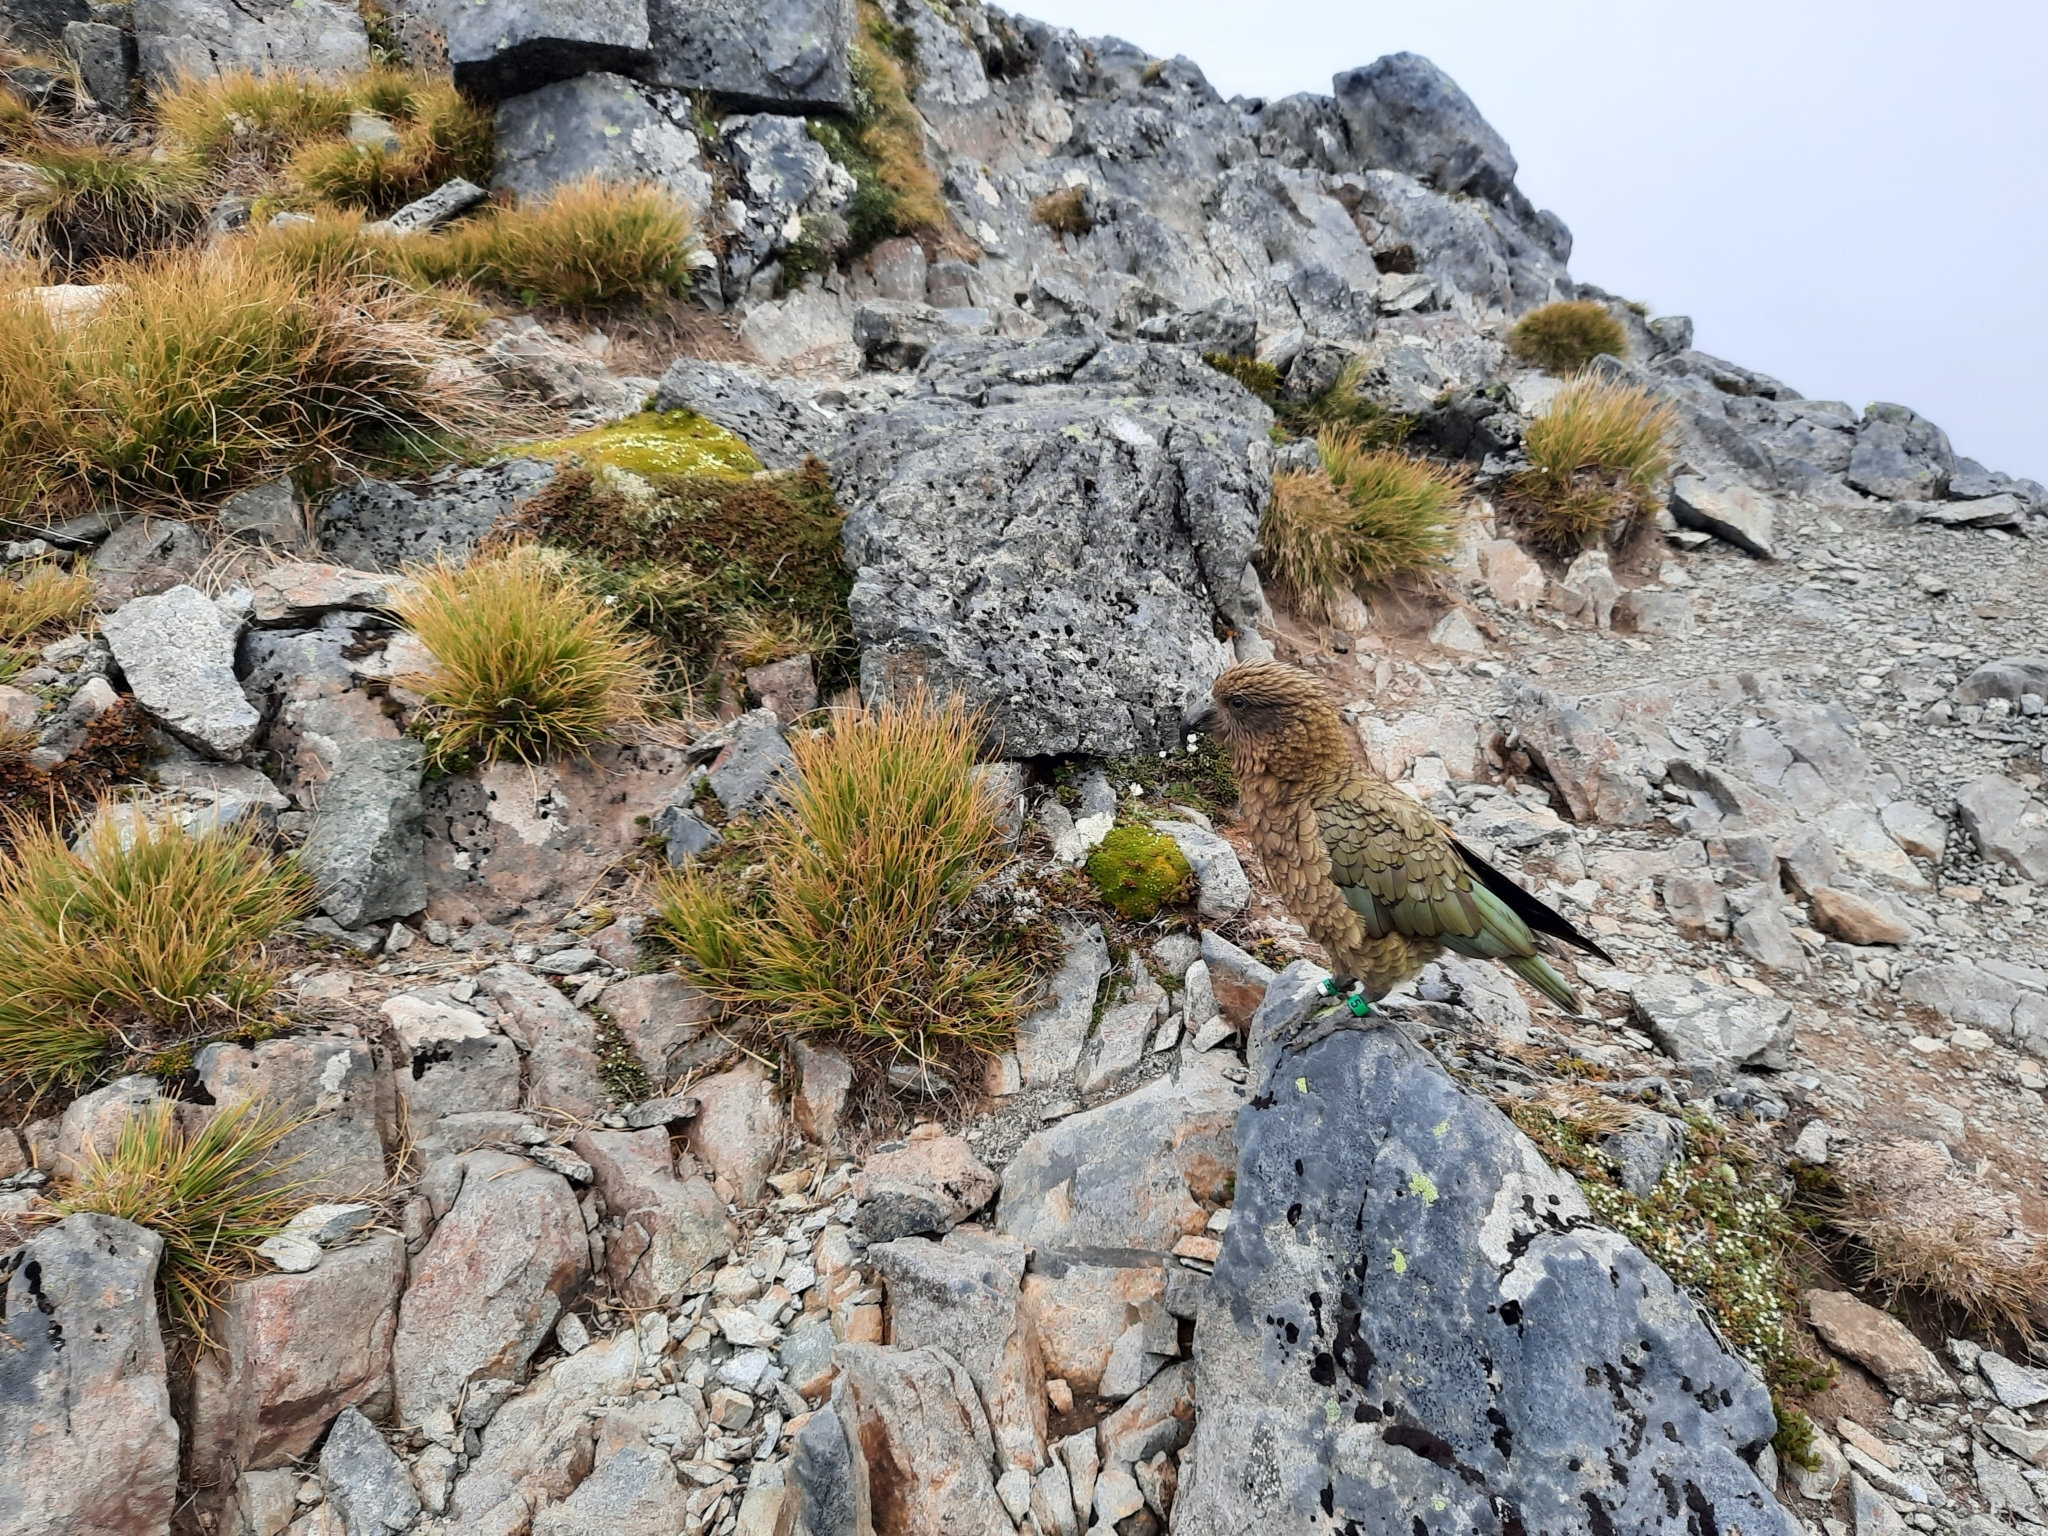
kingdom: Animalia
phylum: Chordata
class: Aves
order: Psittaciformes
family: Psittacidae
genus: Nestor
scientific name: Nestor notabilis
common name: Kea
